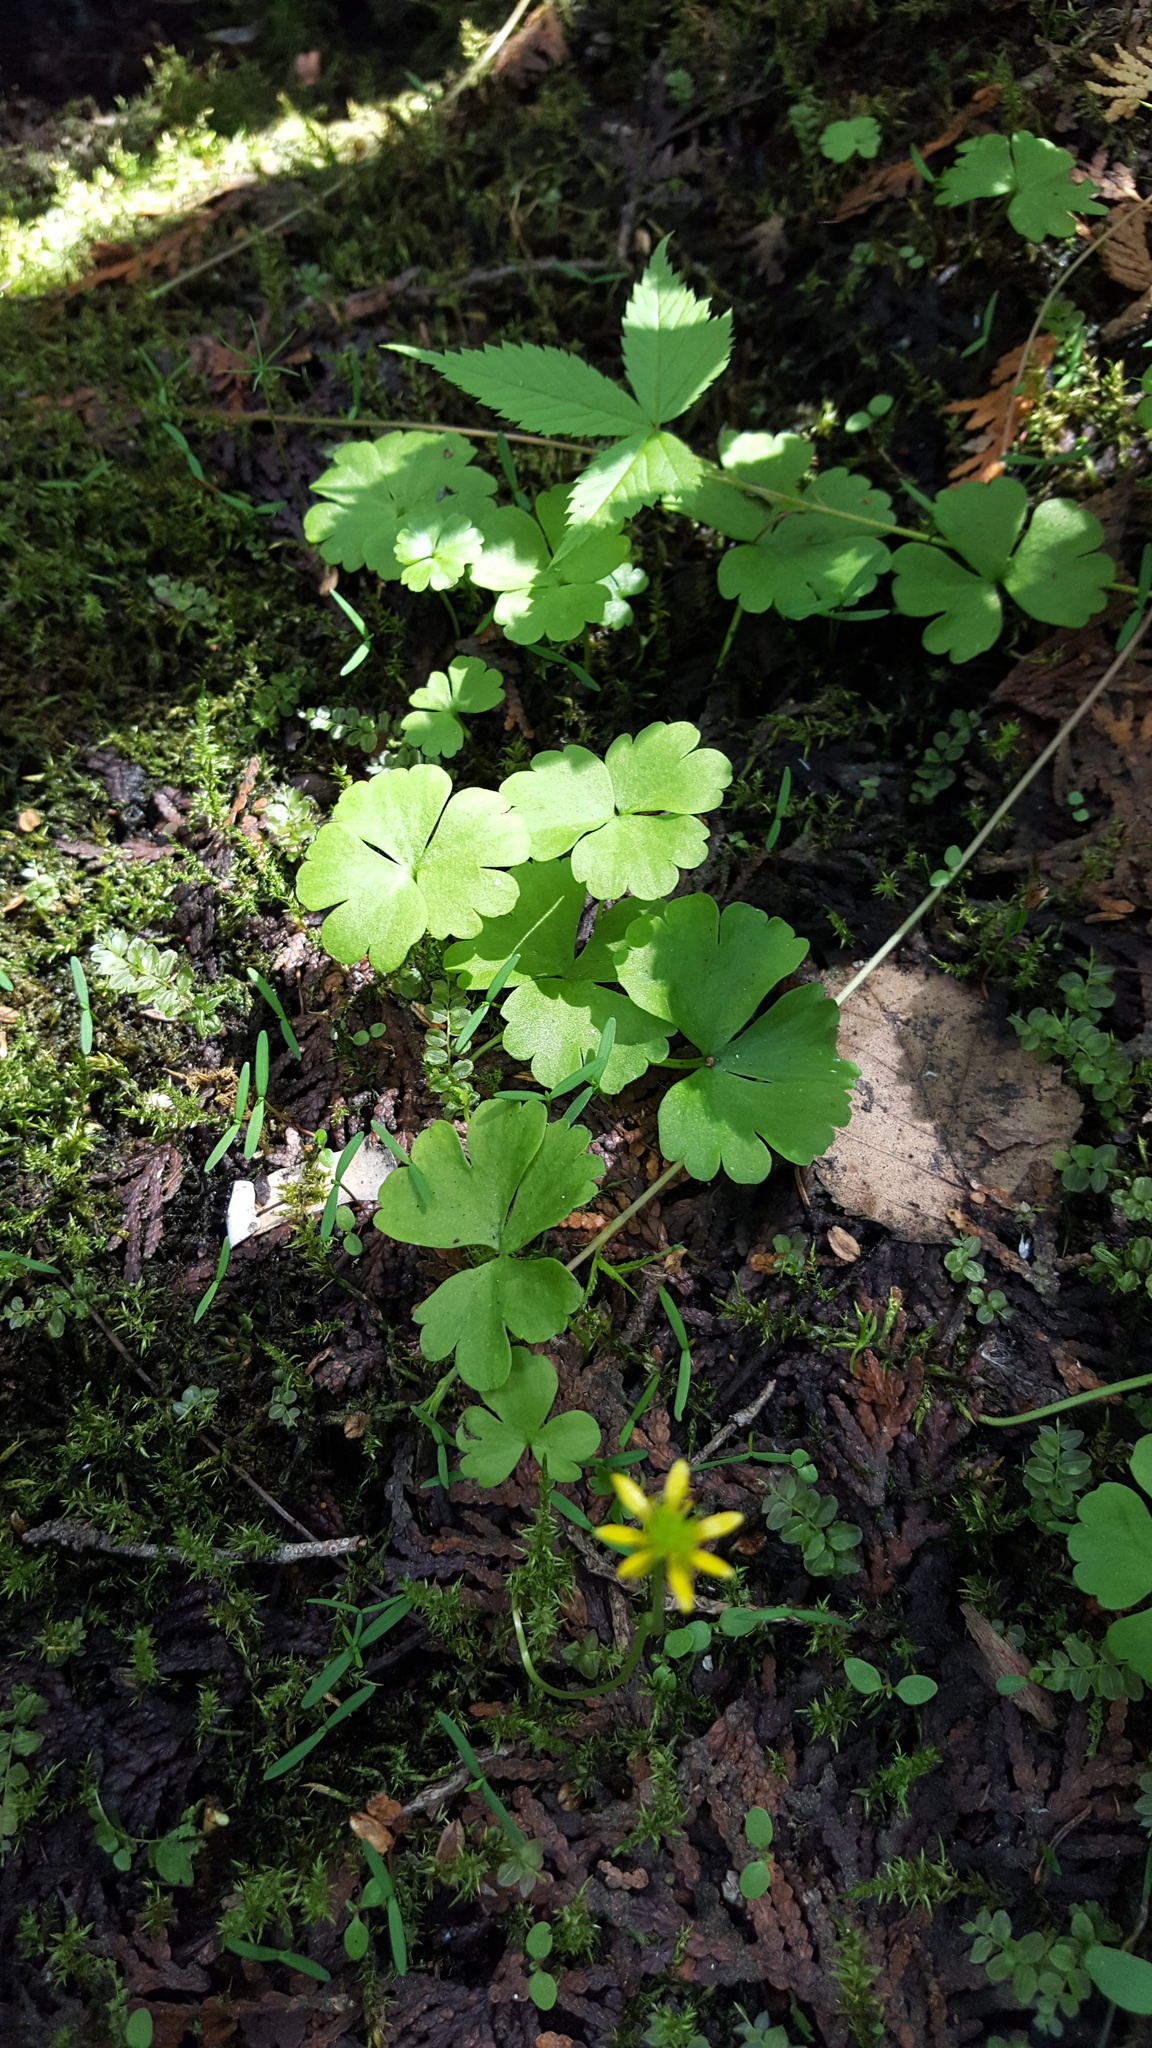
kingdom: Plantae
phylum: Tracheophyta
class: Magnoliopsida
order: Ranunculales
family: Ranunculaceae
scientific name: Ranunculaceae
